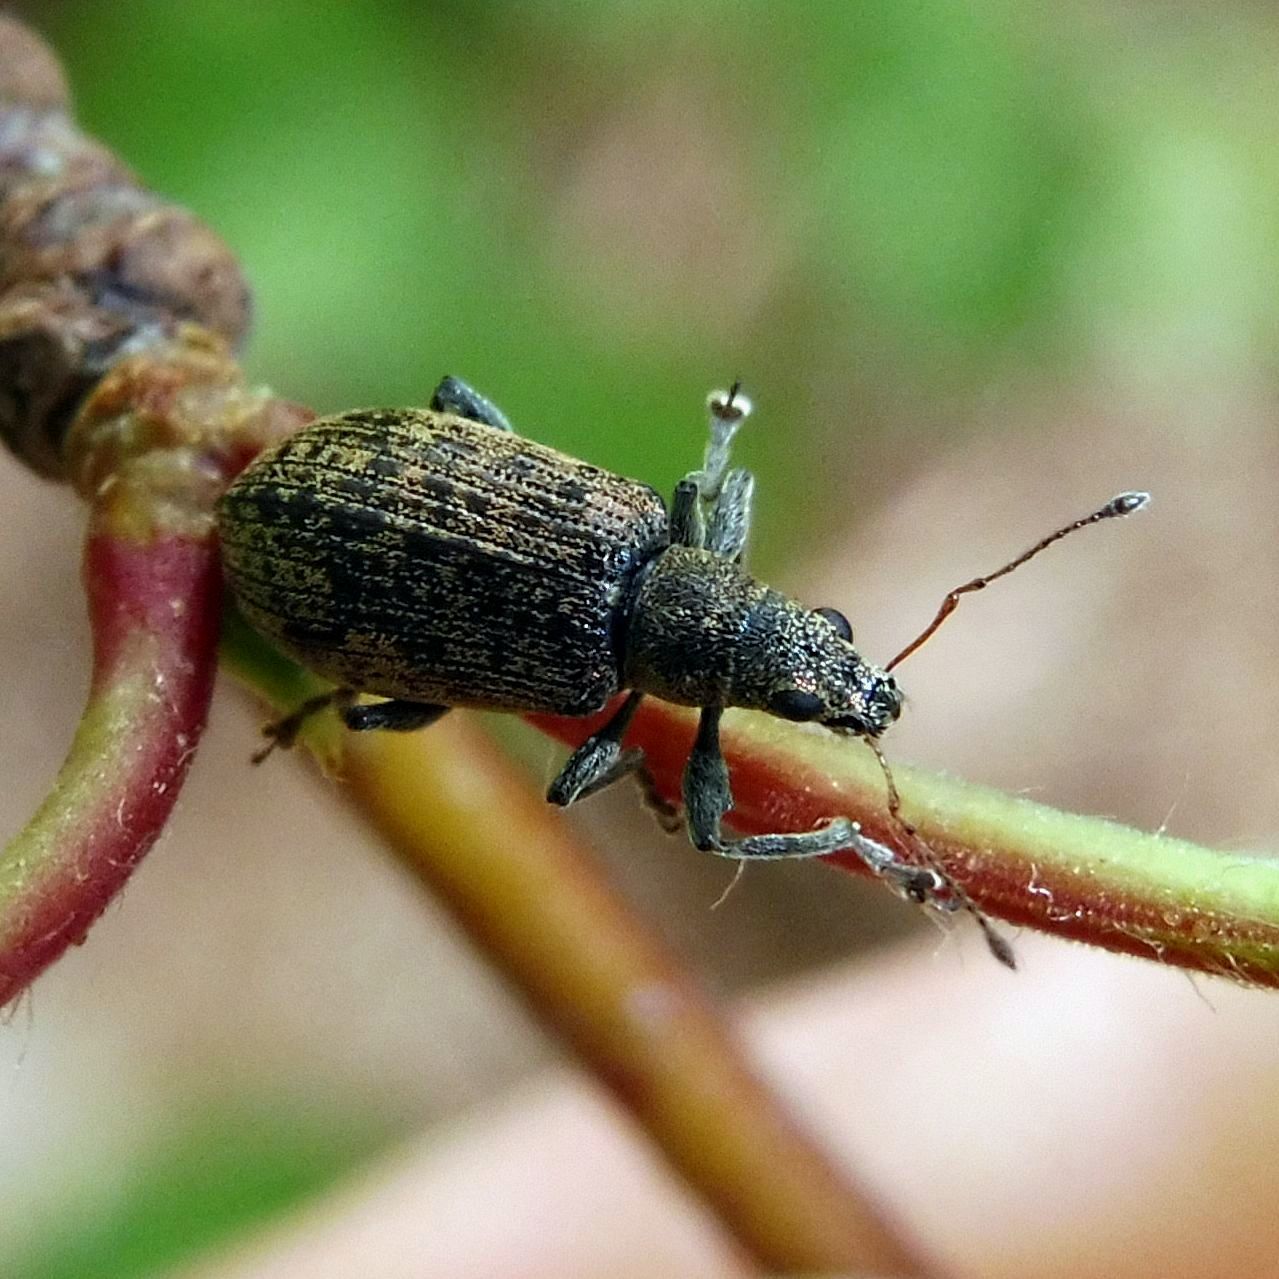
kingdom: Animalia
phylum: Arthropoda
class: Insecta
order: Coleoptera
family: Curculionidae
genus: Polydrusus
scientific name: Polydrusus cervinus
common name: Weevil
